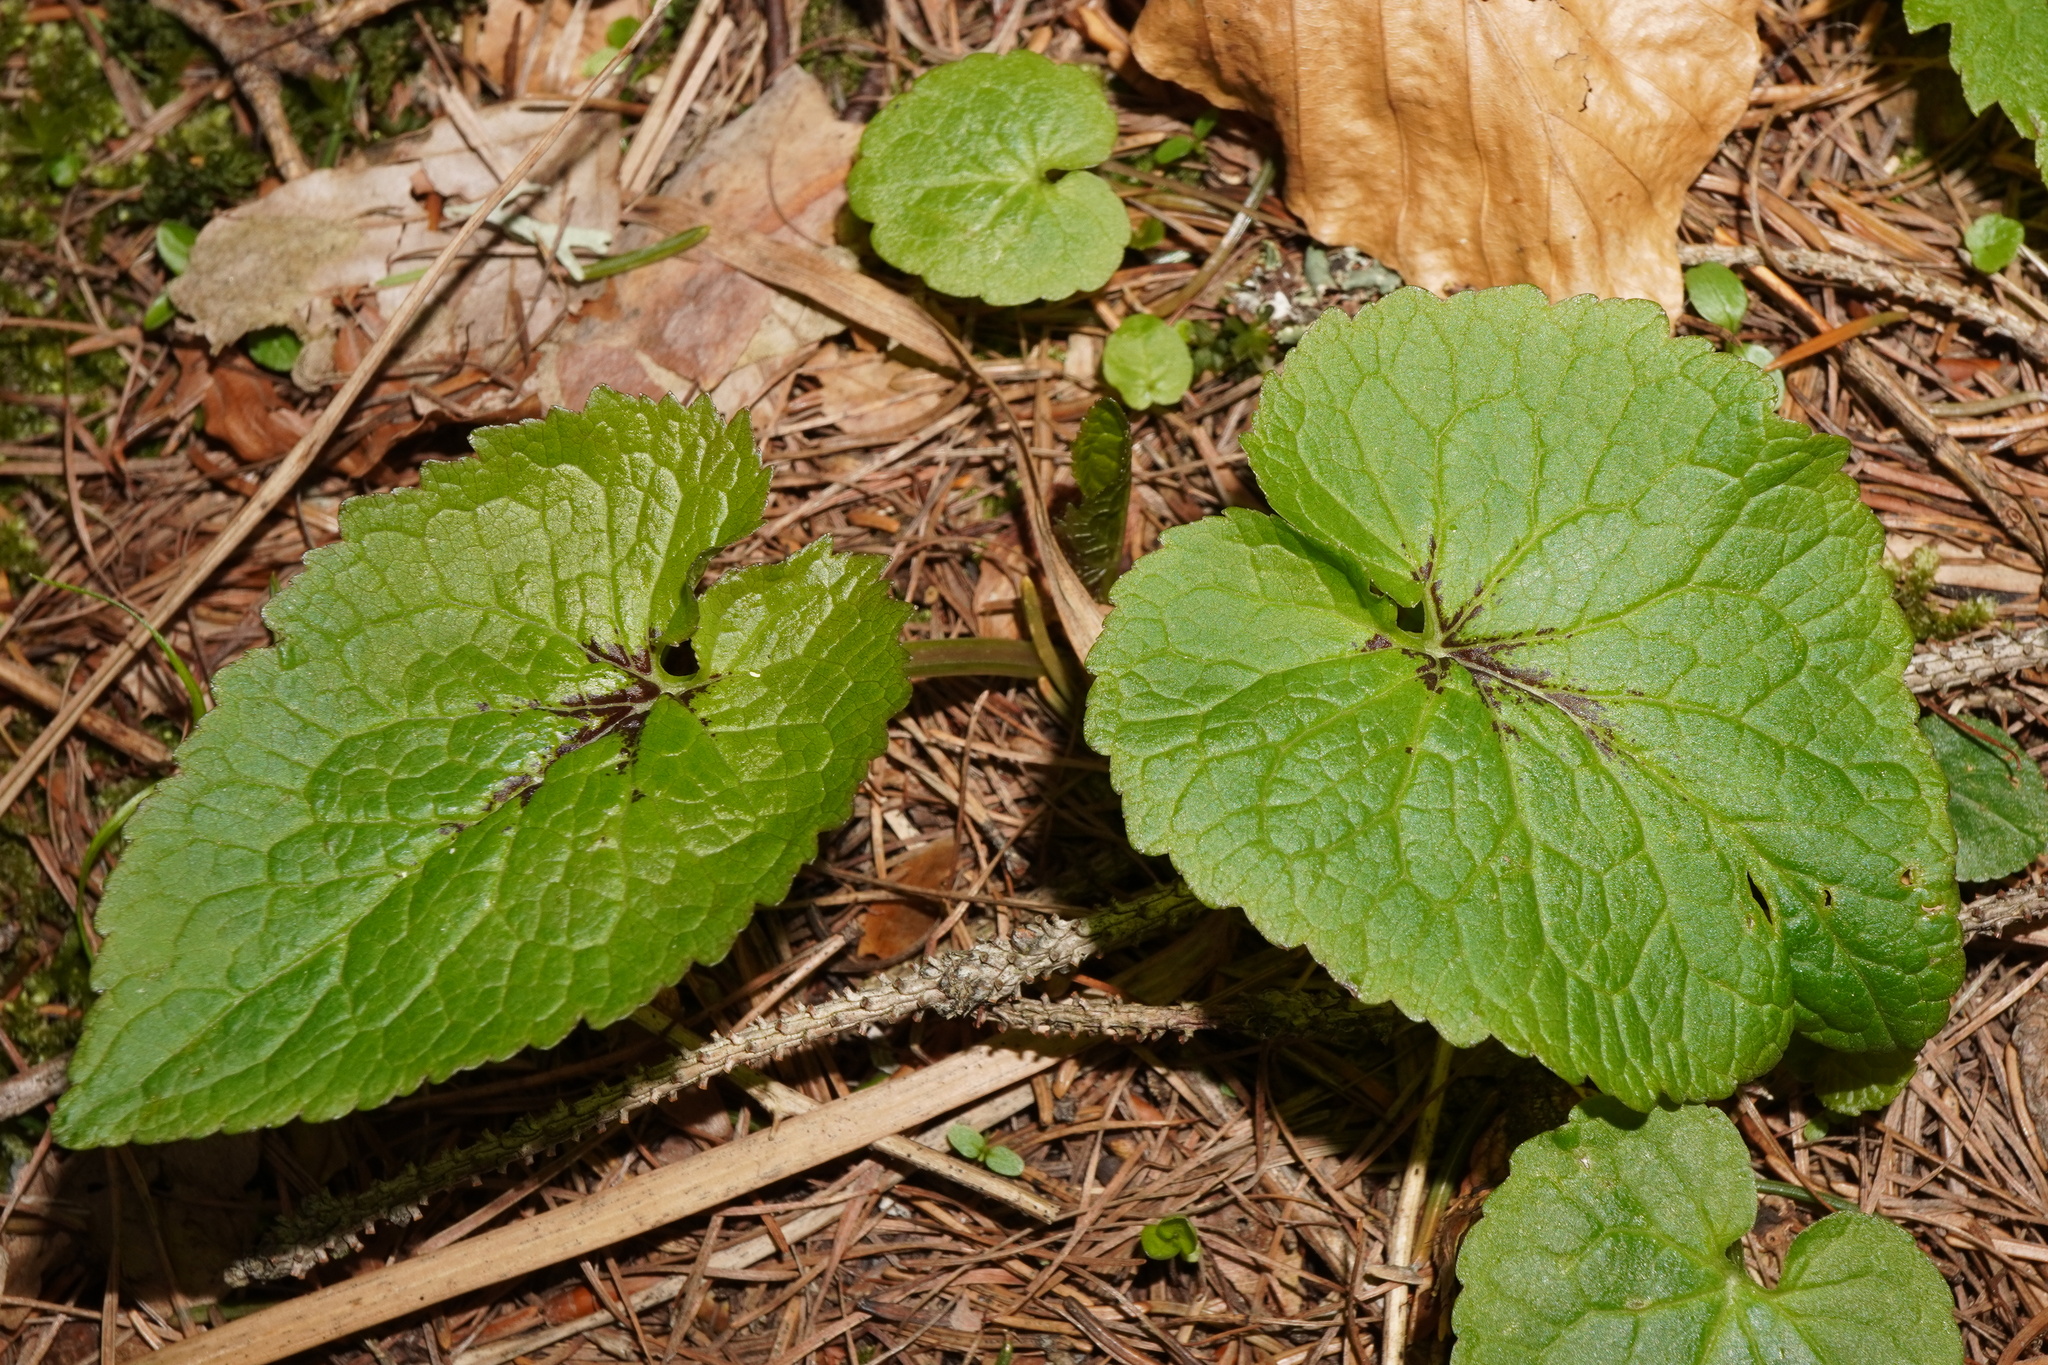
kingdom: Plantae
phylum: Tracheophyta
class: Magnoliopsida
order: Asterales
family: Campanulaceae
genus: Phyteuma
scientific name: Phyteuma spicatum
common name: Spiked rampion
